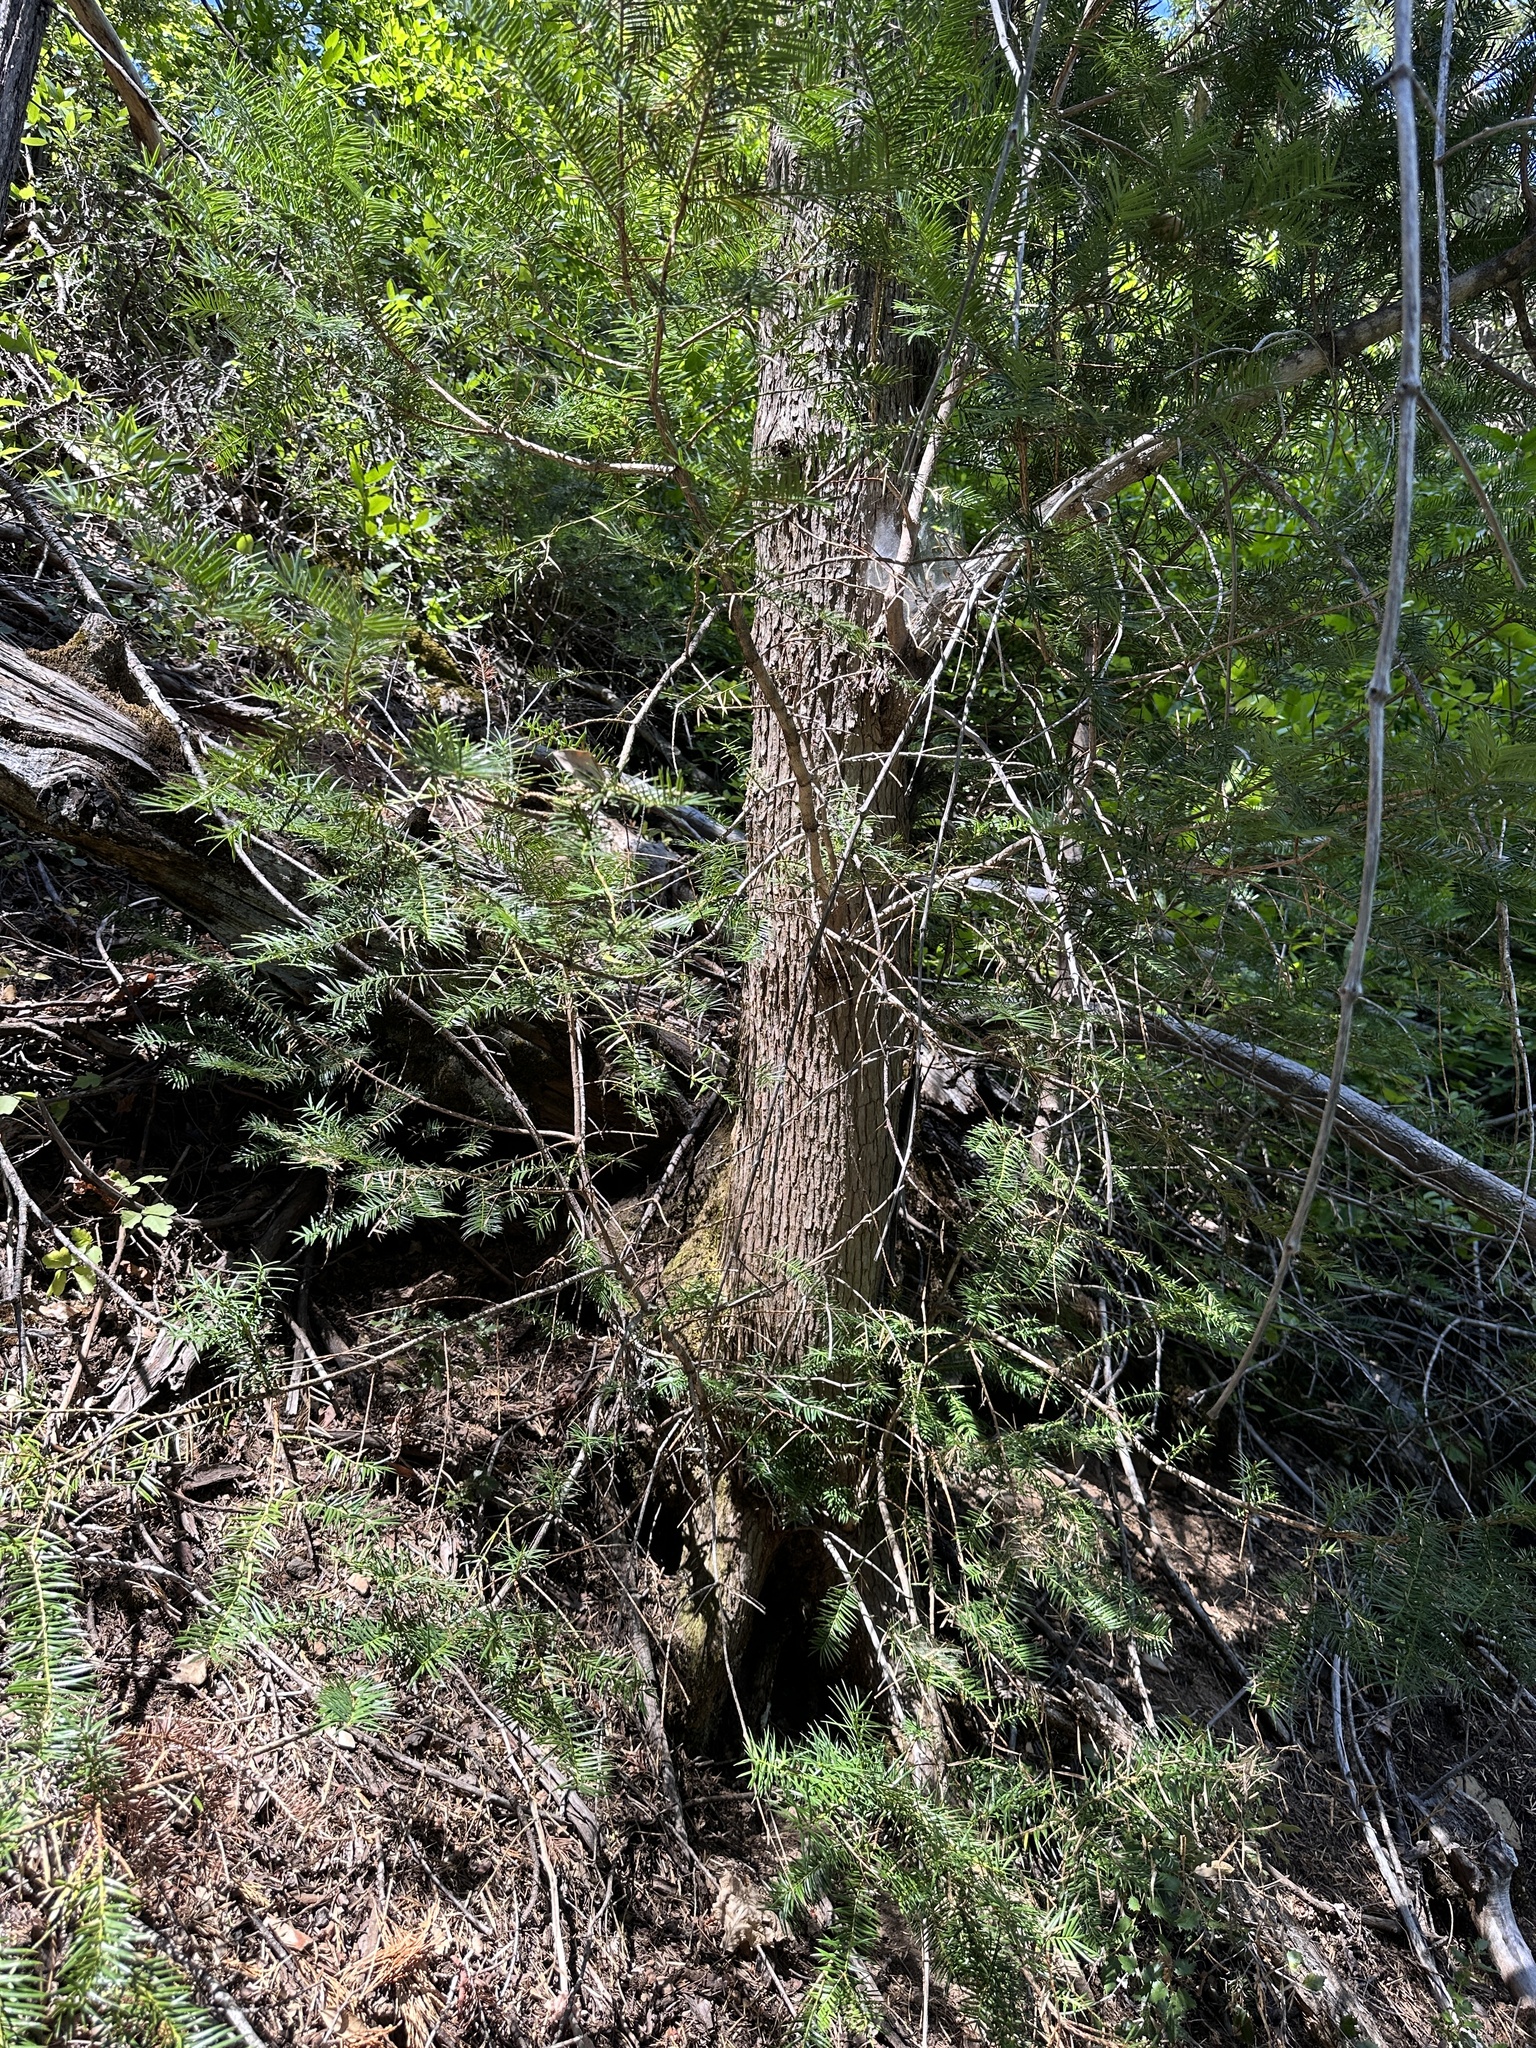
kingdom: Plantae
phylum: Tracheophyta
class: Pinopsida
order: Pinales
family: Taxaceae
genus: Torreya
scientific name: Torreya californica
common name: California torreya
